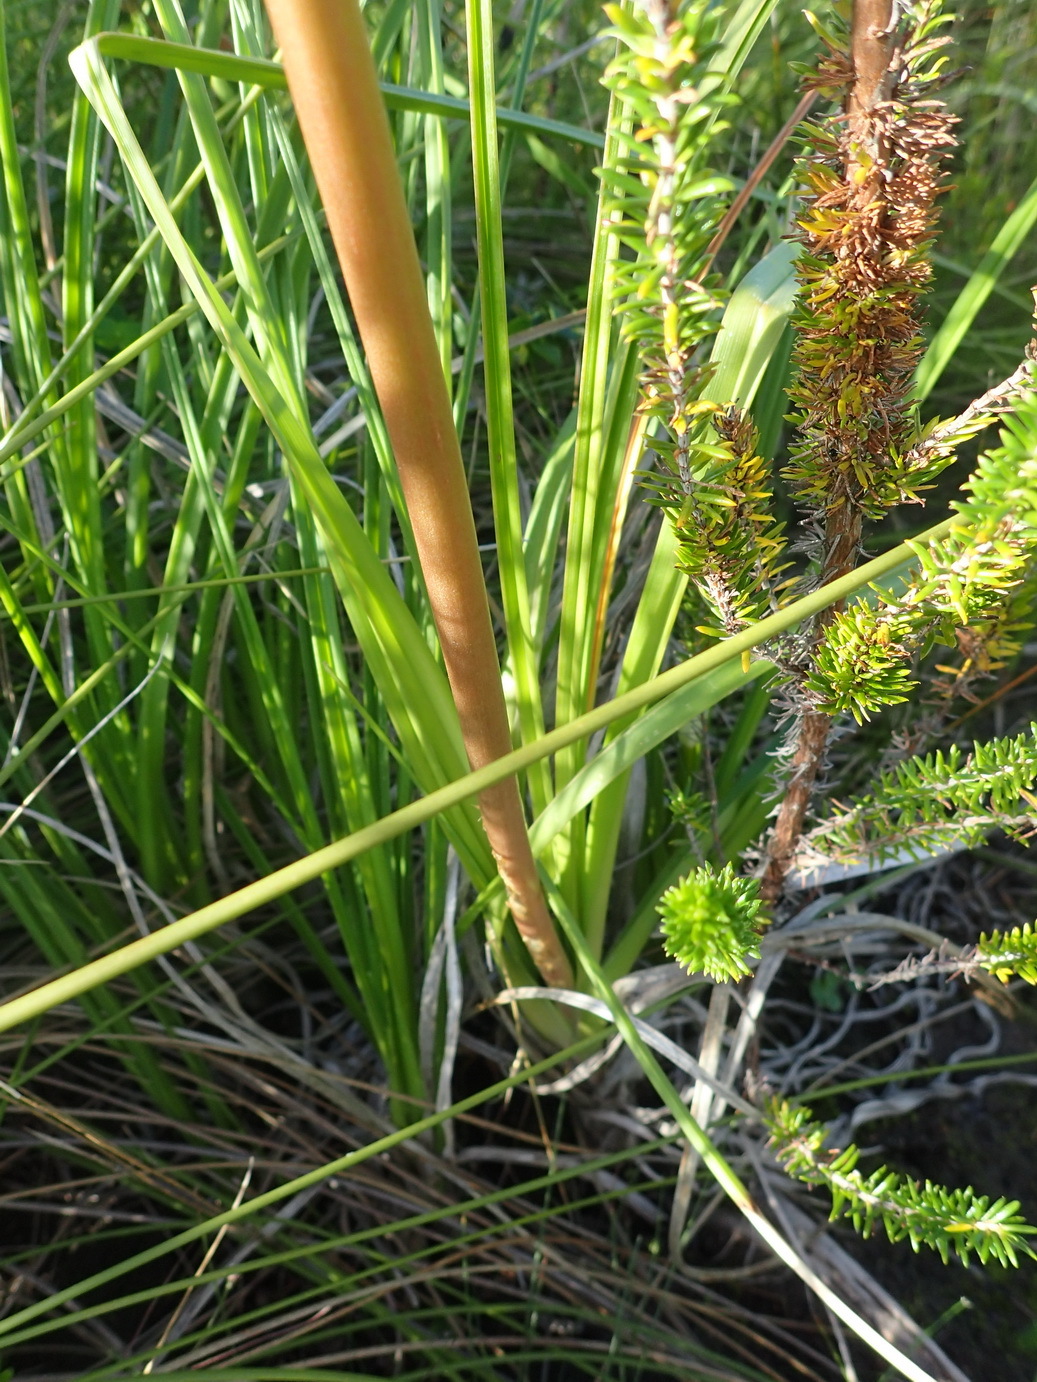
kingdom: Plantae
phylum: Tracheophyta
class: Liliopsida
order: Asparagales
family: Asphodelaceae
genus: Kniphofia
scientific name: Kniphofia uvaria
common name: Red-hot-poker
